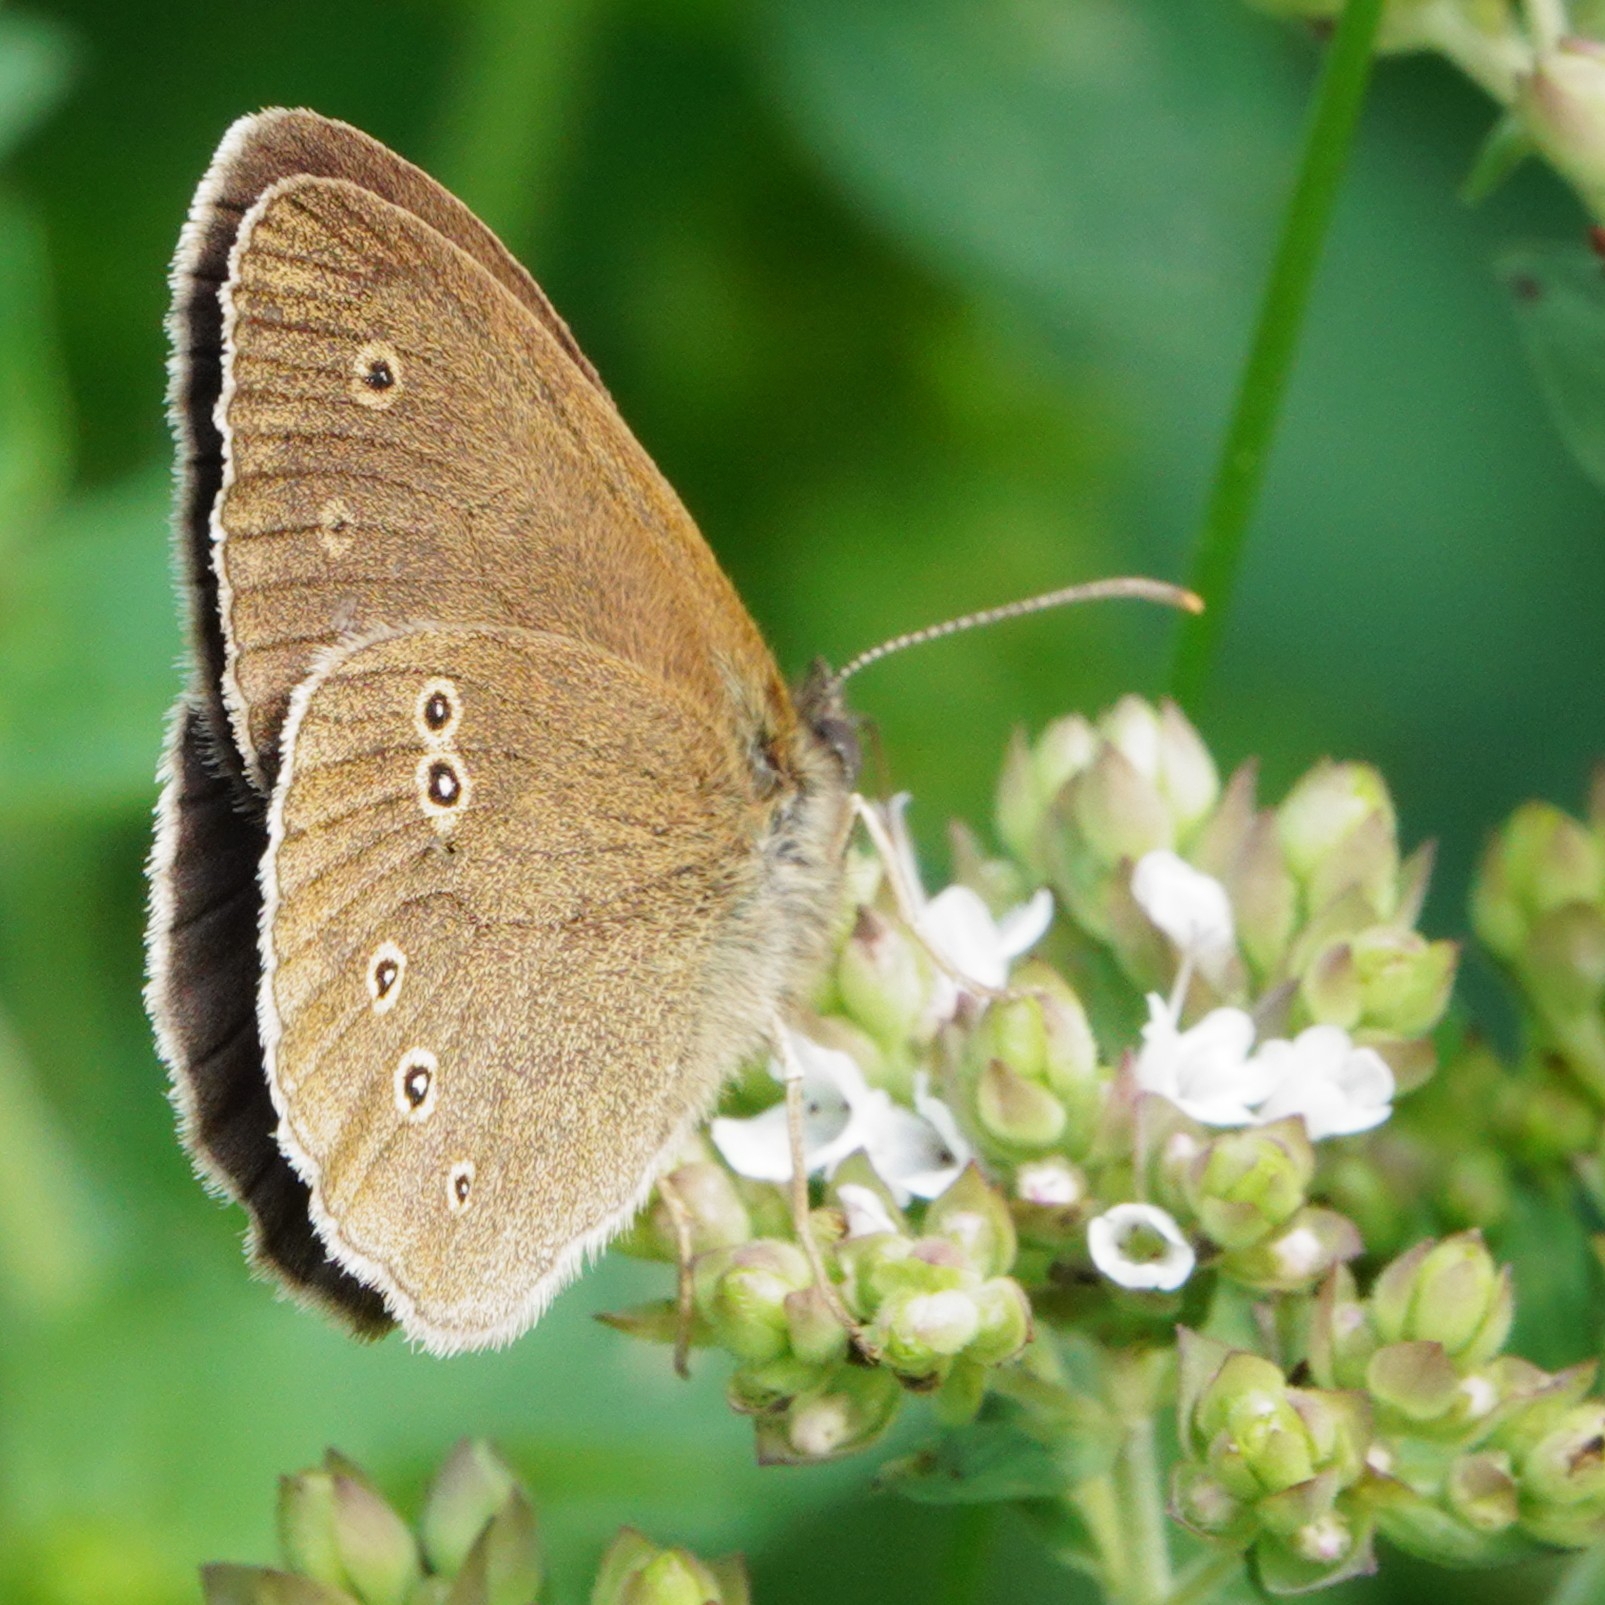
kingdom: Animalia
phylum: Arthropoda
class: Insecta
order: Lepidoptera
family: Nymphalidae
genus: Aphantopus
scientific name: Aphantopus hyperantus
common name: Ringlet
